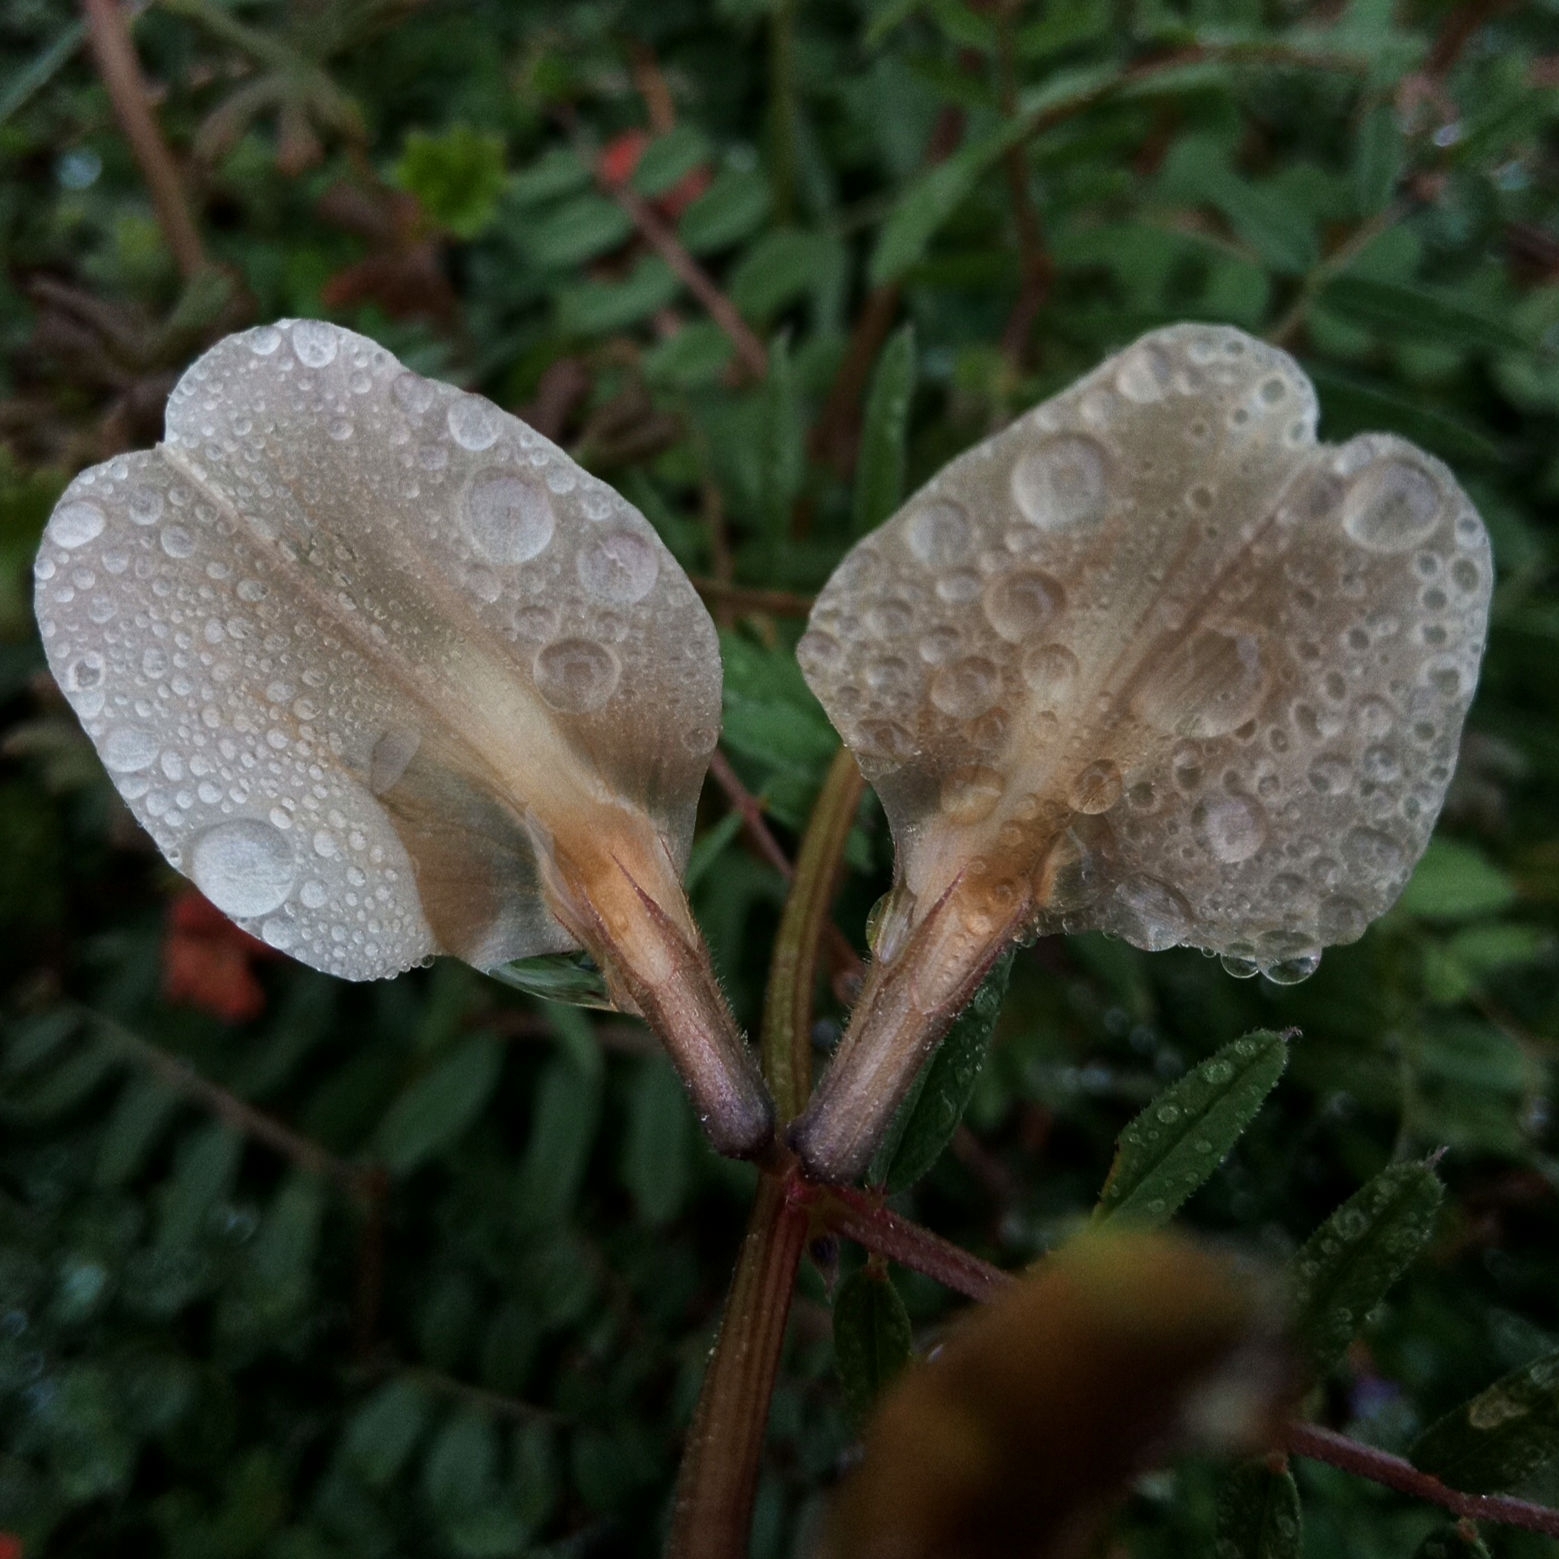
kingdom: Plantae
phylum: Tracheophyta
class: Magnoliopsida
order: Fabales
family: Fabaceae
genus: Vicia
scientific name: Vicia grandiflora
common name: Large yellow vetch
